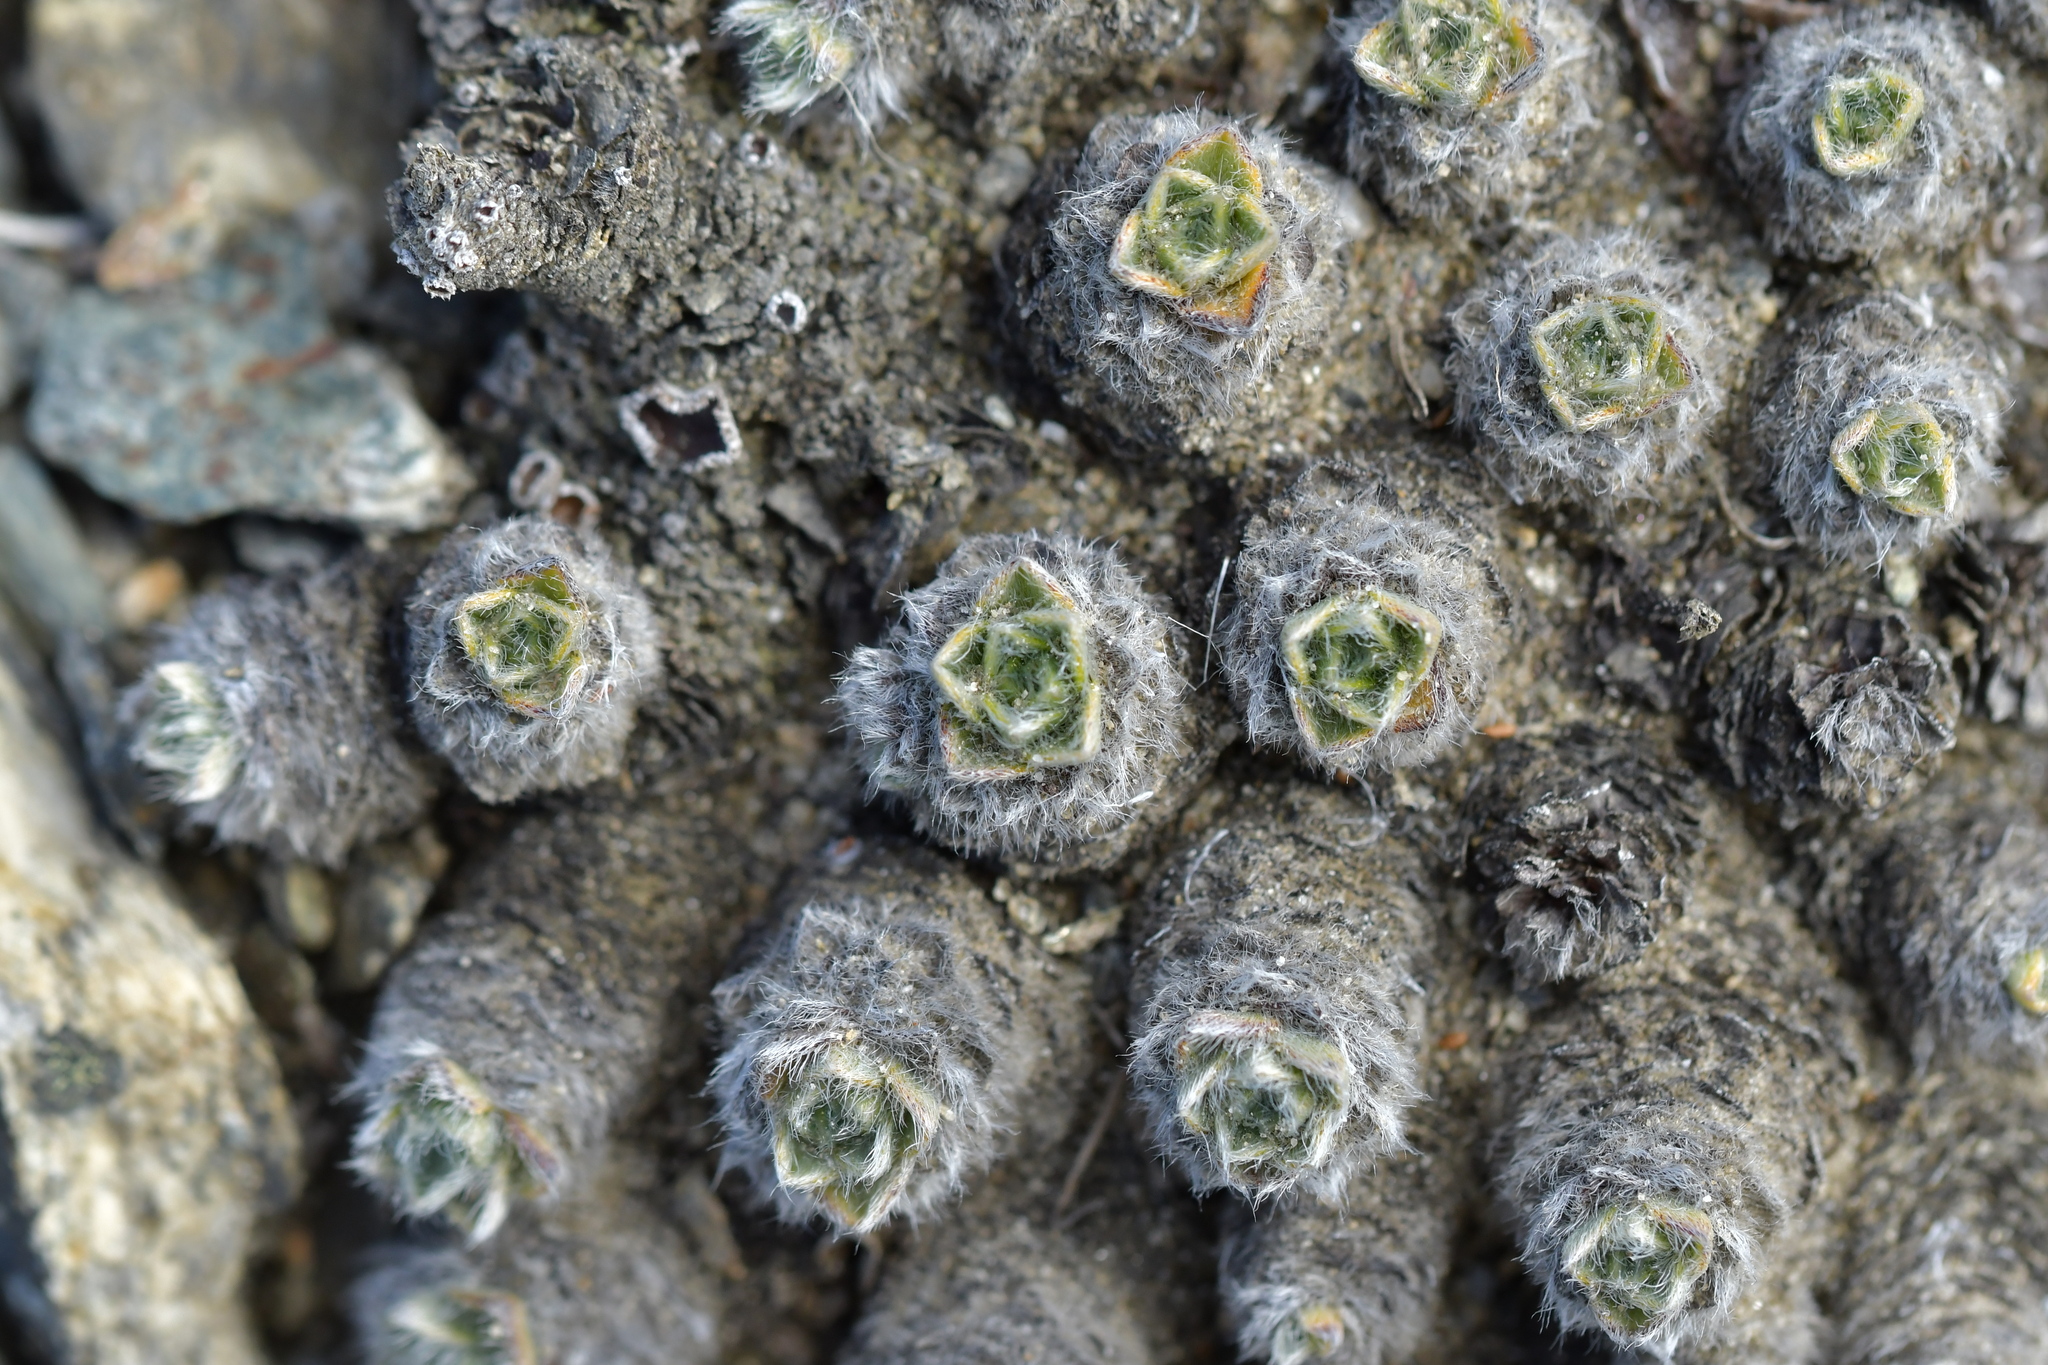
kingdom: Plantae
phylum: Tracheophyta
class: Magnoliopsida
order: Boraginales
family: Boraginaceae
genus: Myosotis
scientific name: Myosotis pulvinaris
